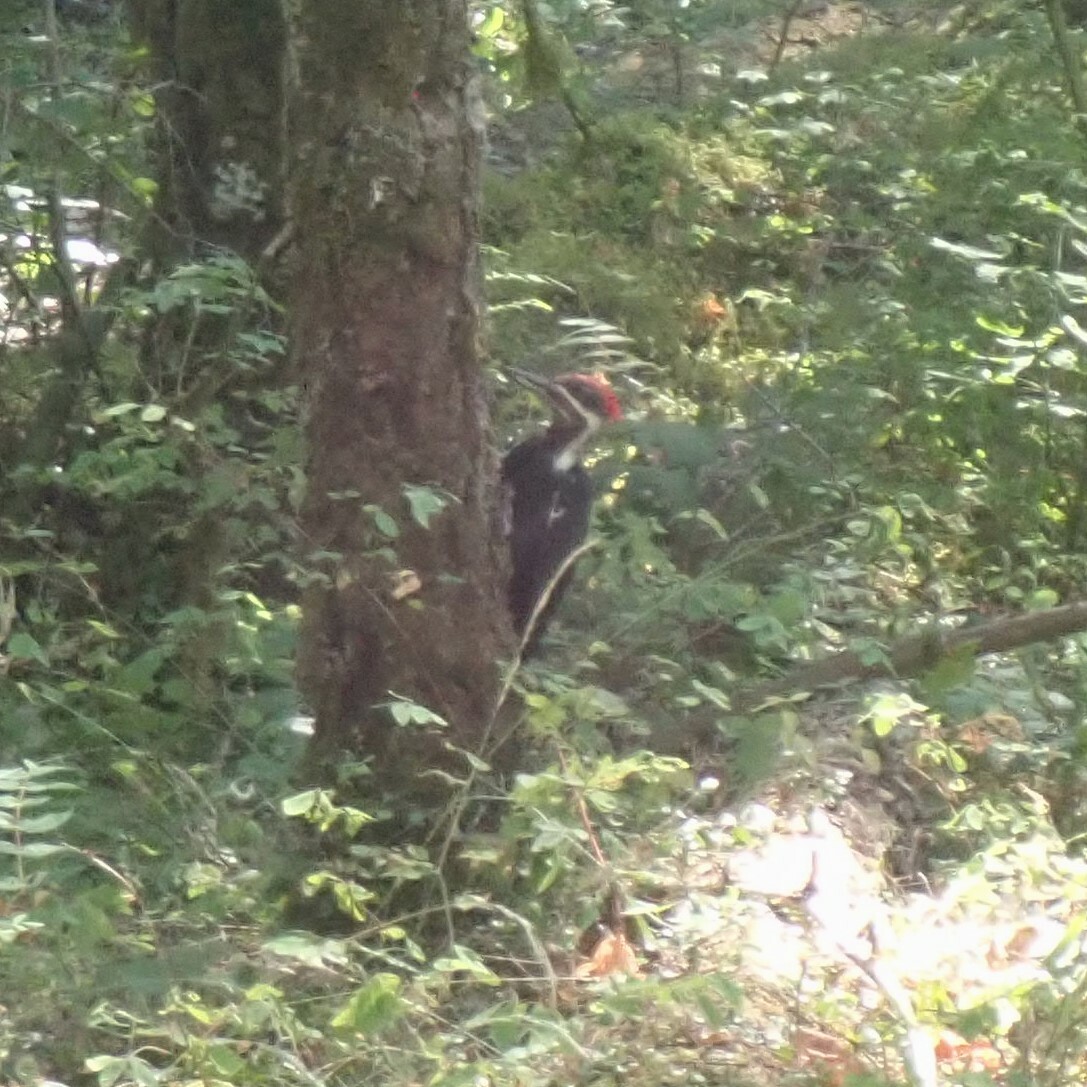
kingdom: Animalia
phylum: Chordata
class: Aves
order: Piciformes
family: Picidae
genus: Dryocopus
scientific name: Dryocopus pileatus
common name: Pileated woodpecker
